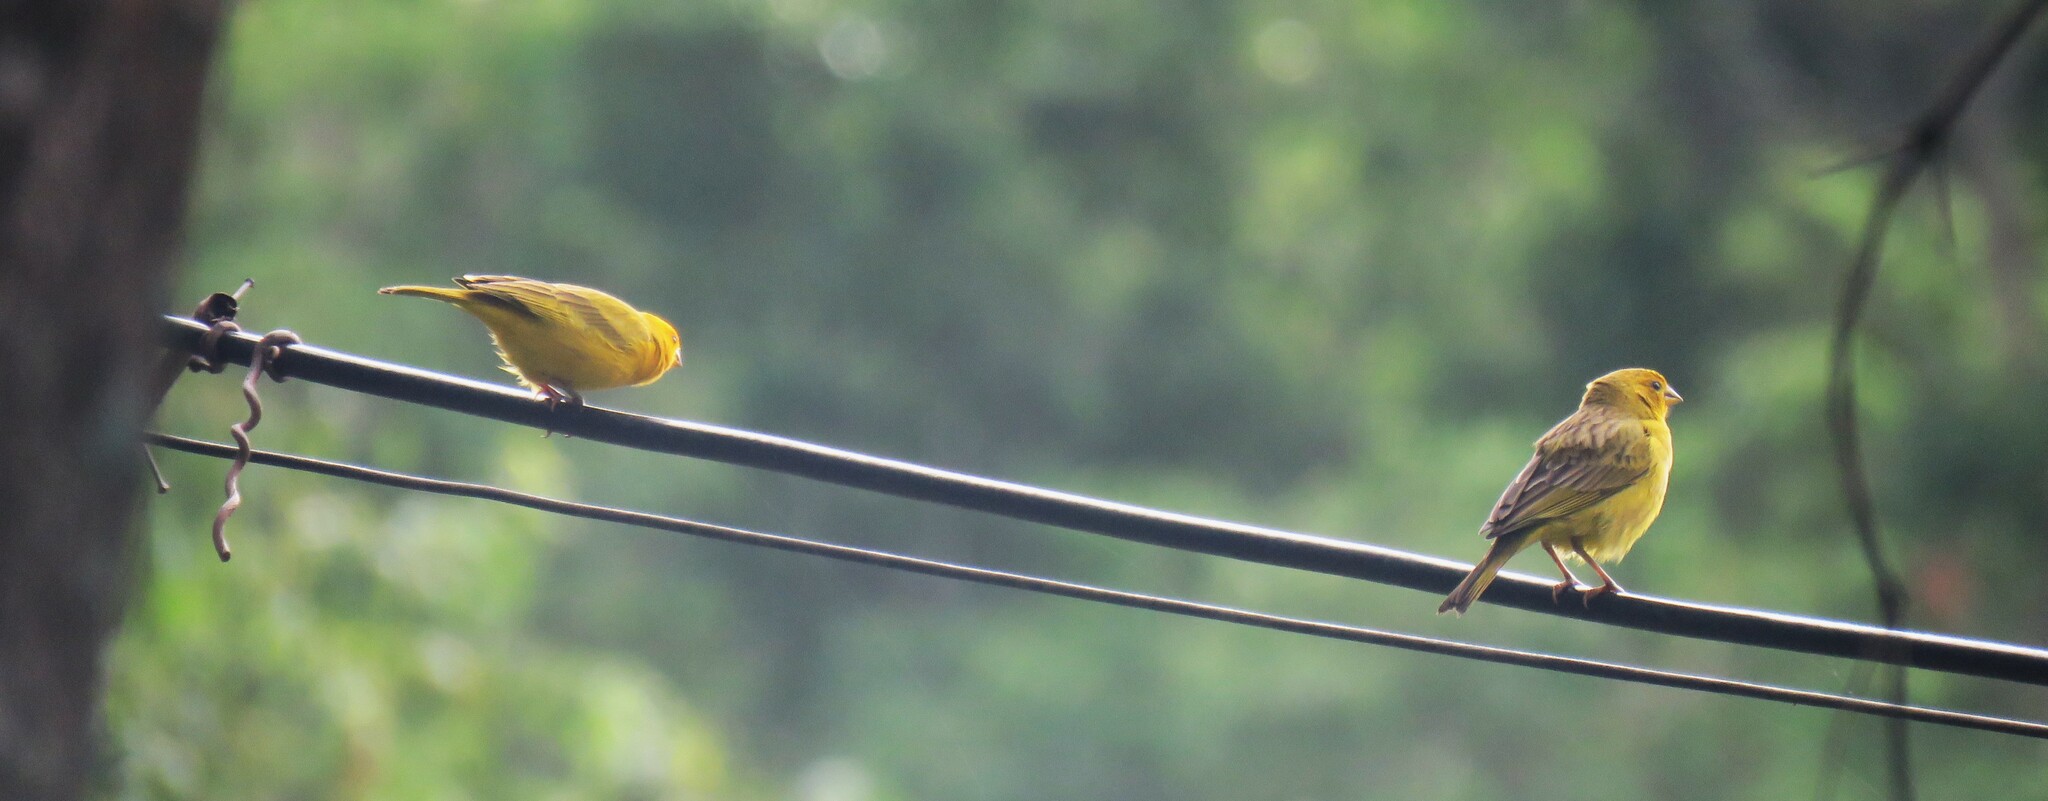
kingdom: Animalia
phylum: Chordata
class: Aves
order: Passeriformes
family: Thraupidae
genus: Sicalis
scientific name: Sicalis flaveola
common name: Saffron finch
